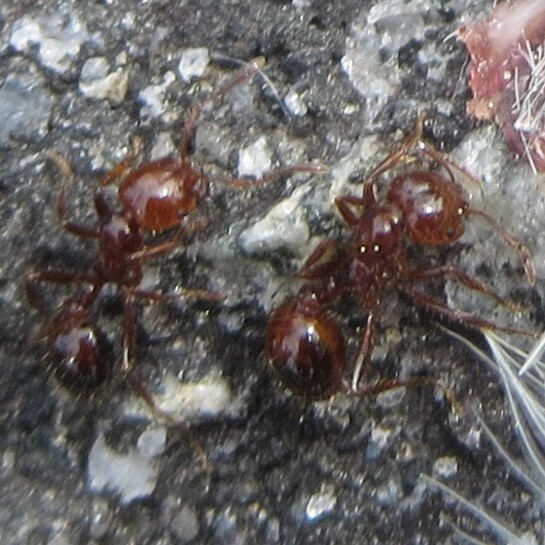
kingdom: Animalia
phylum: Arthropoda
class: Insecta
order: Hymenoptera
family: Formicidae
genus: Solenopsis
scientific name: Solenopsis invicta
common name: Red imported fire ant
